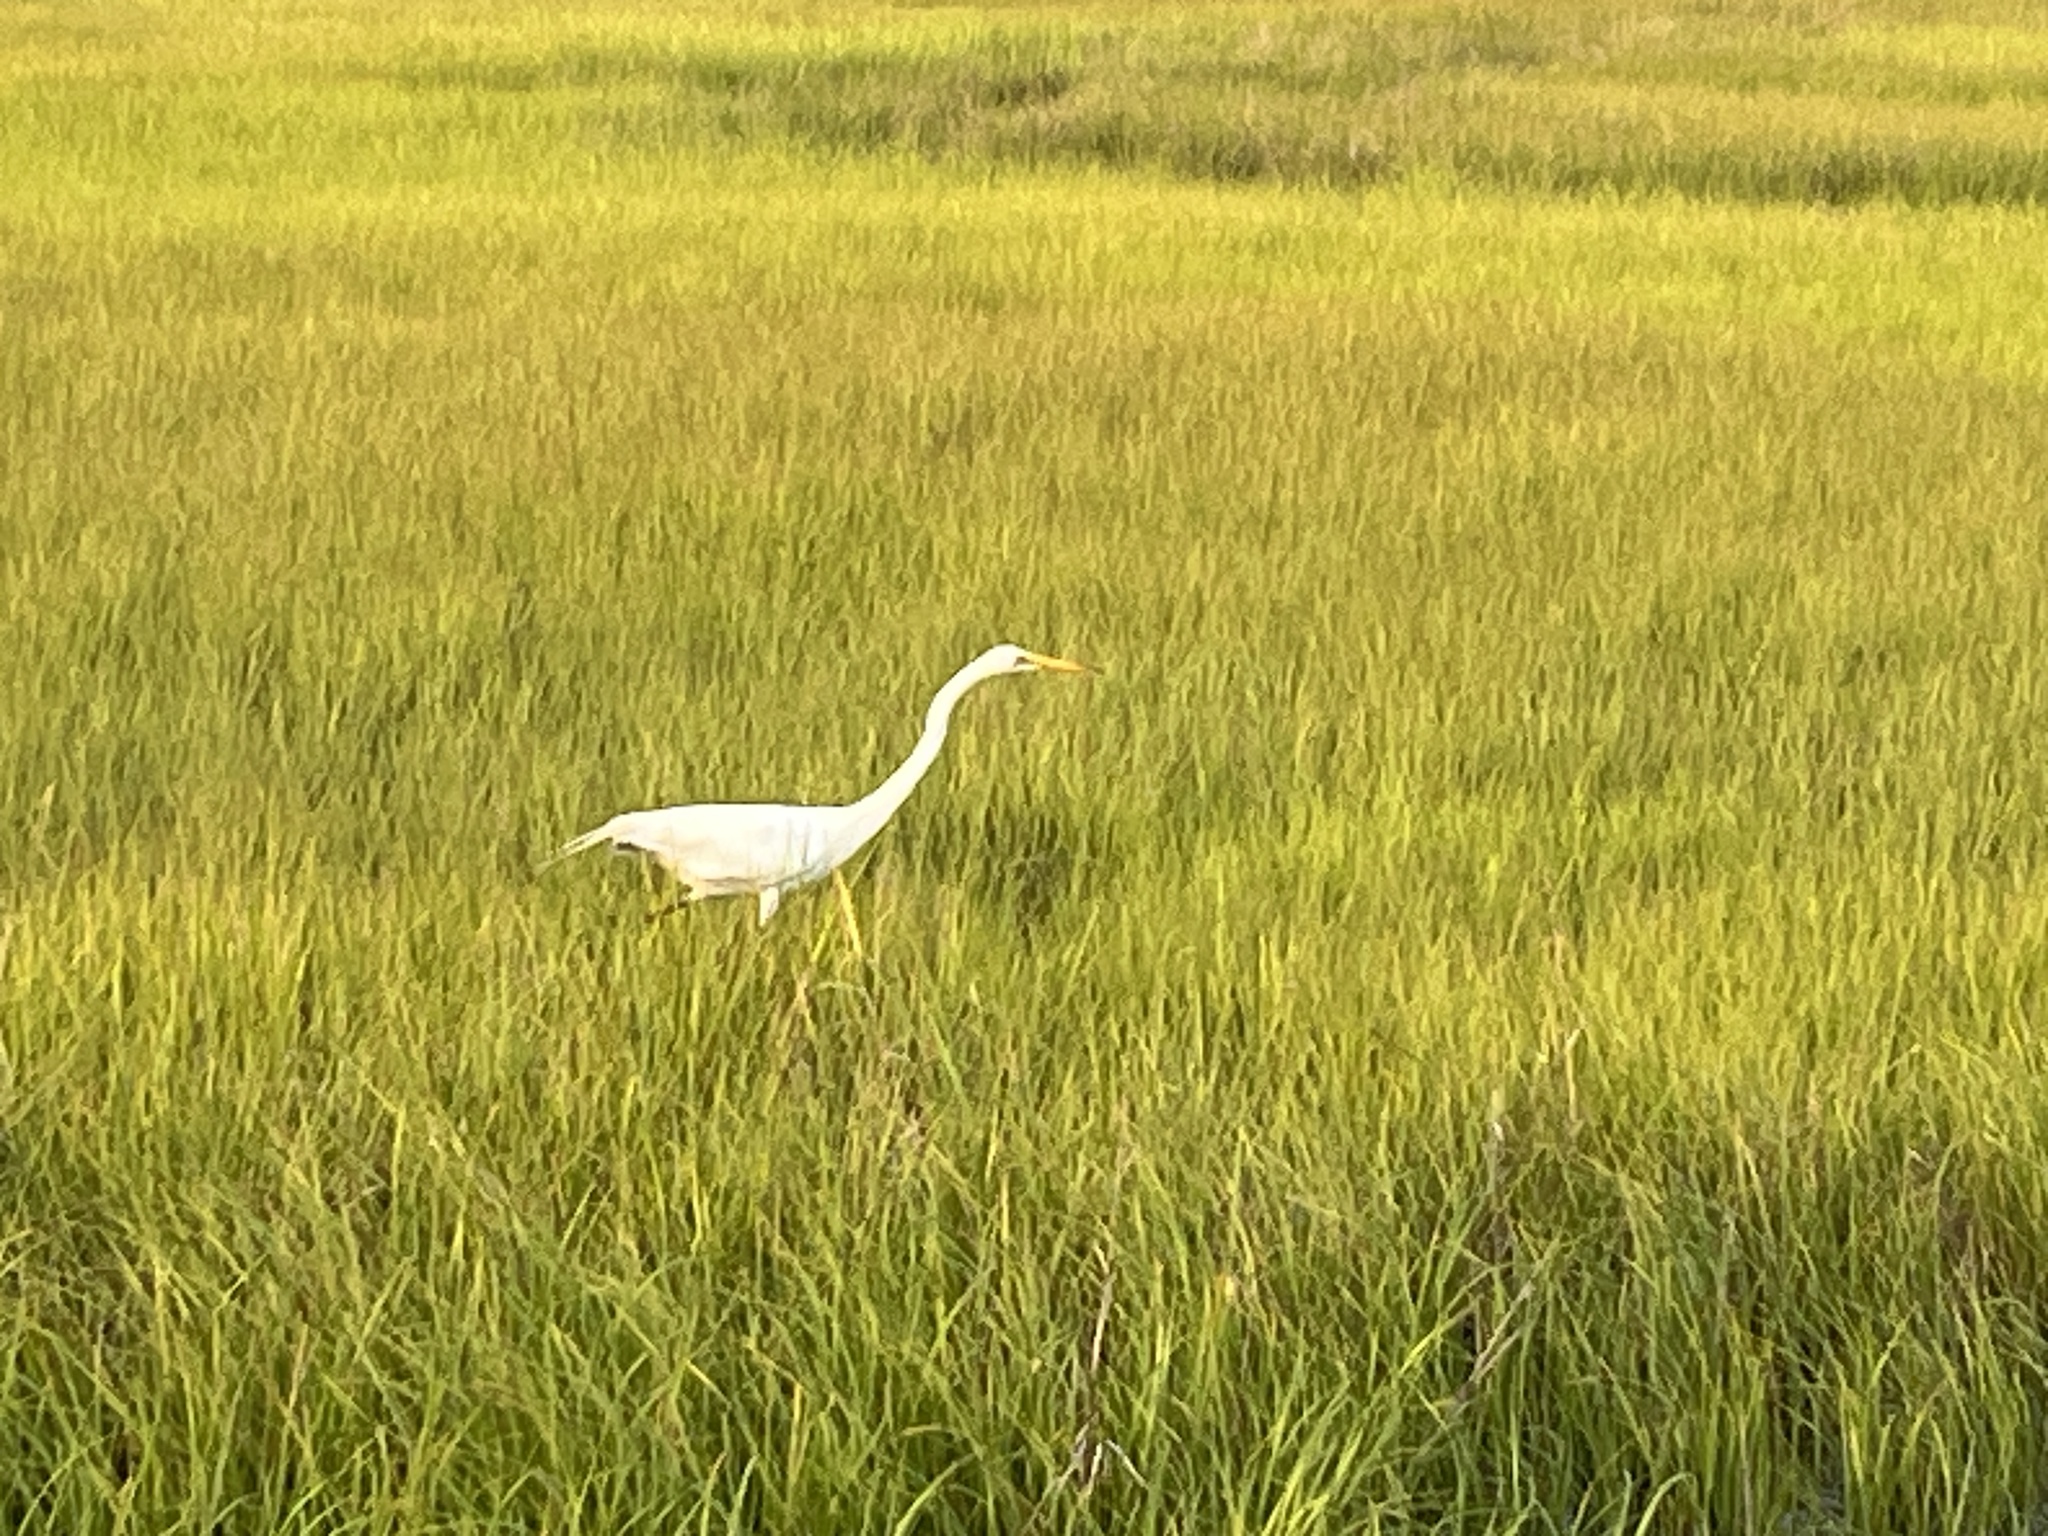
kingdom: Animalia
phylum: Chordata
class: Aves
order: Pelecaniformes
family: Ardeidae
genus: Ardea
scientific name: Ardea alba
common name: Great egret
